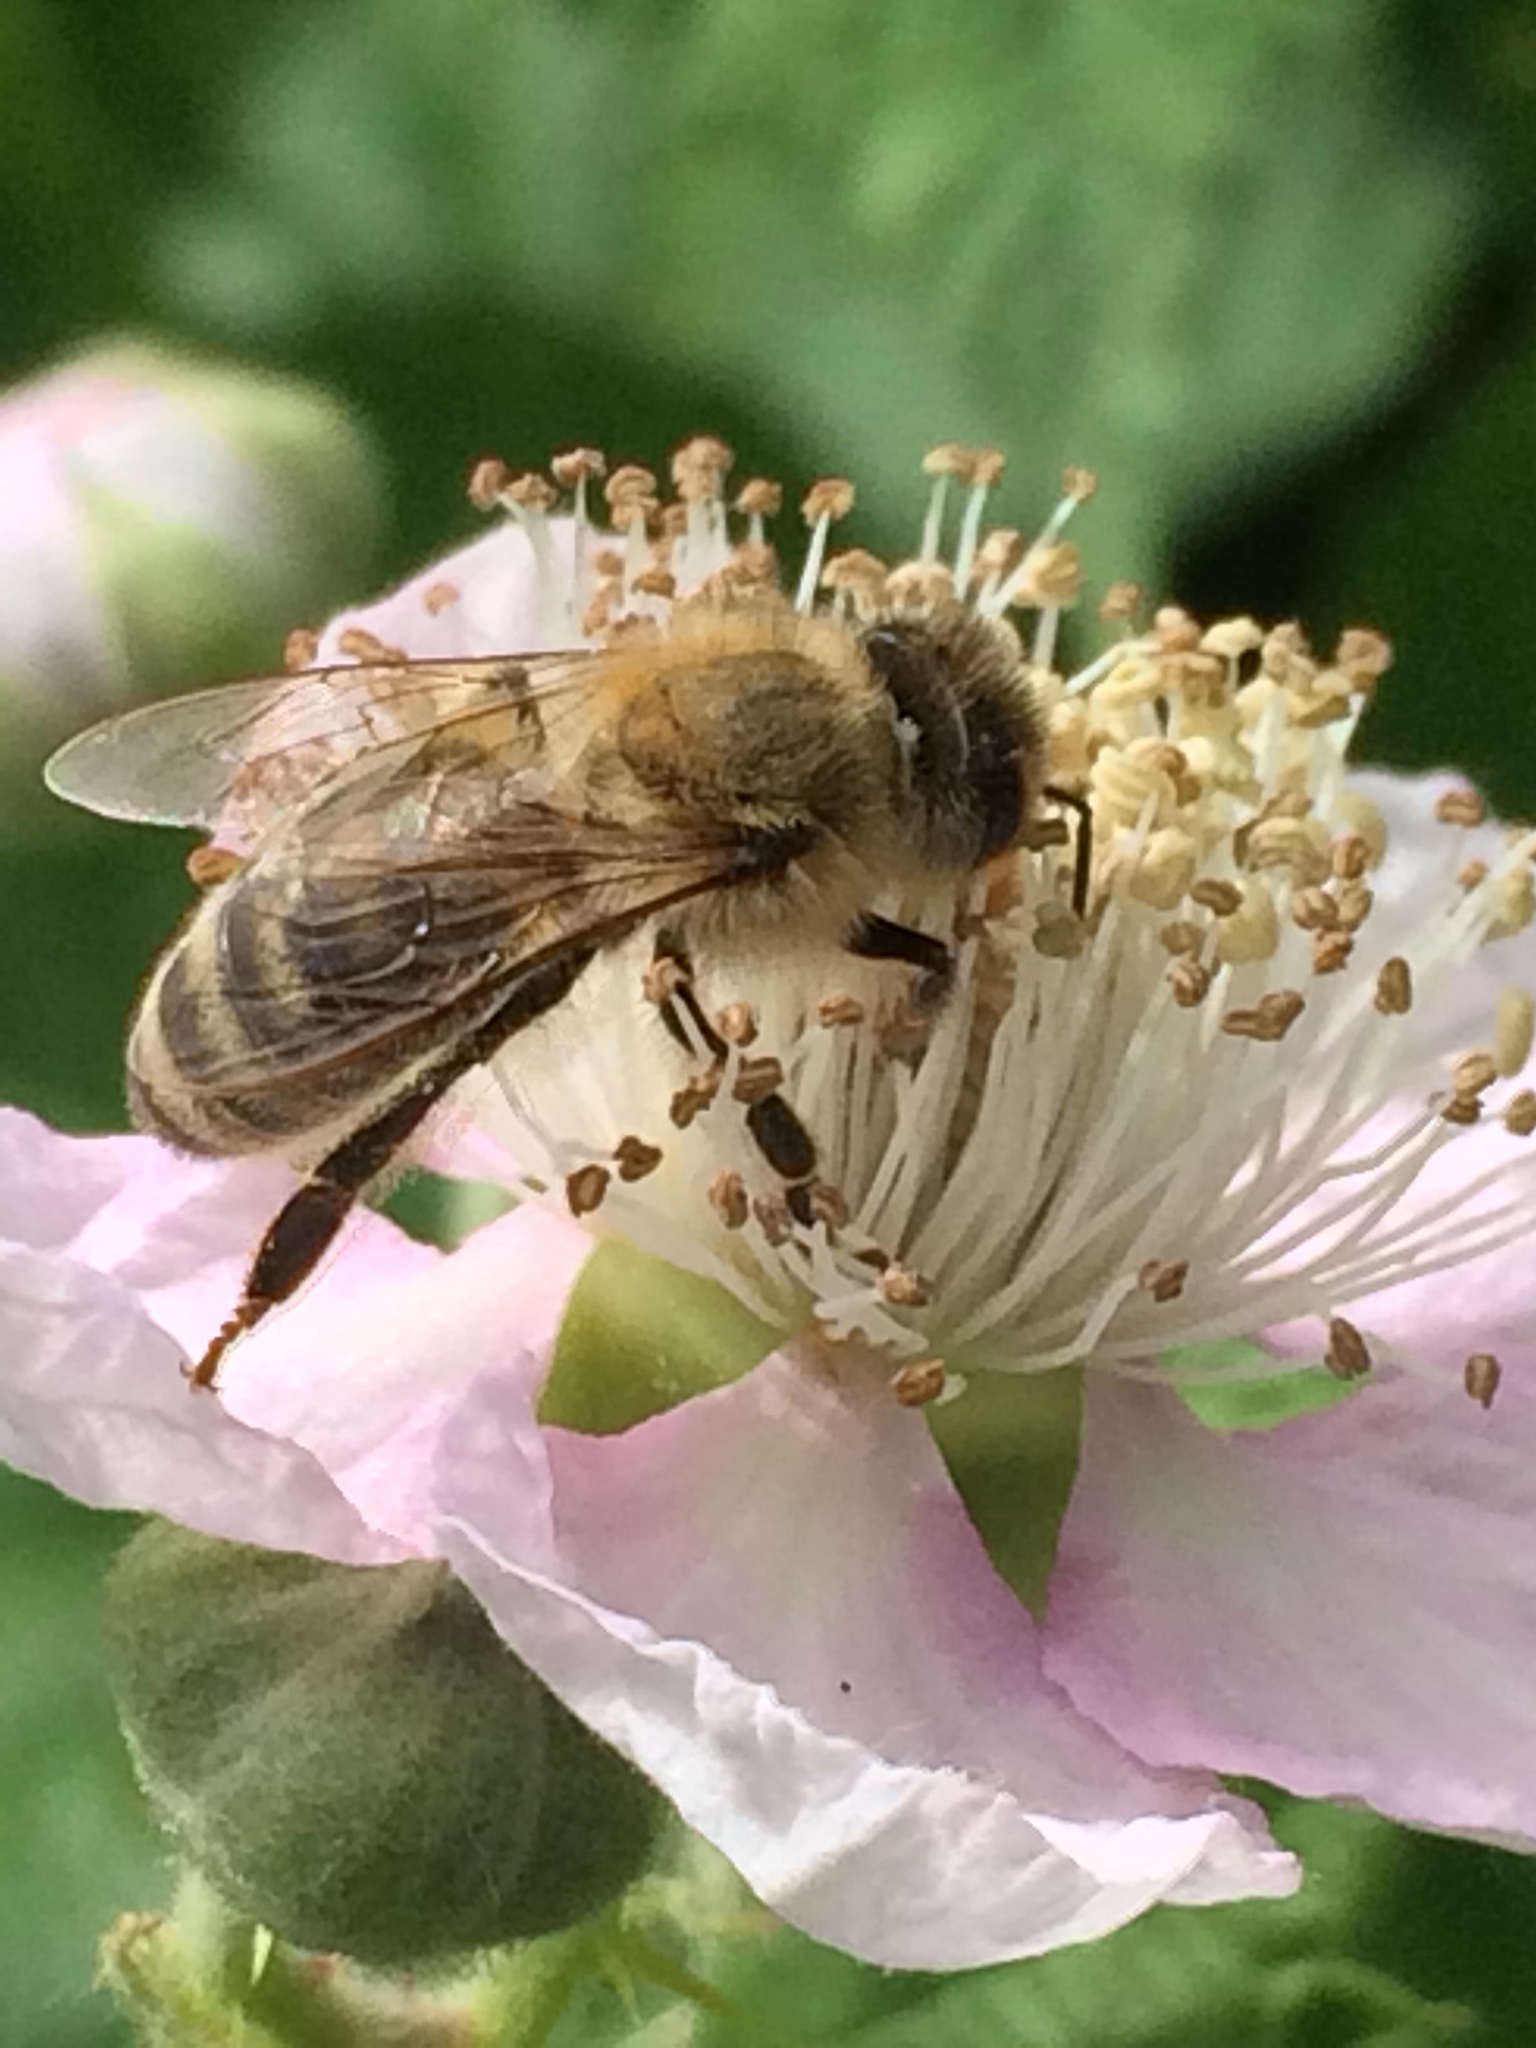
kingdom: Animalia
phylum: Arthropoda
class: Insecta
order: Hymenoptera
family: Apidae
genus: Apis
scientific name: Apis mellifera
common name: Honey bee
